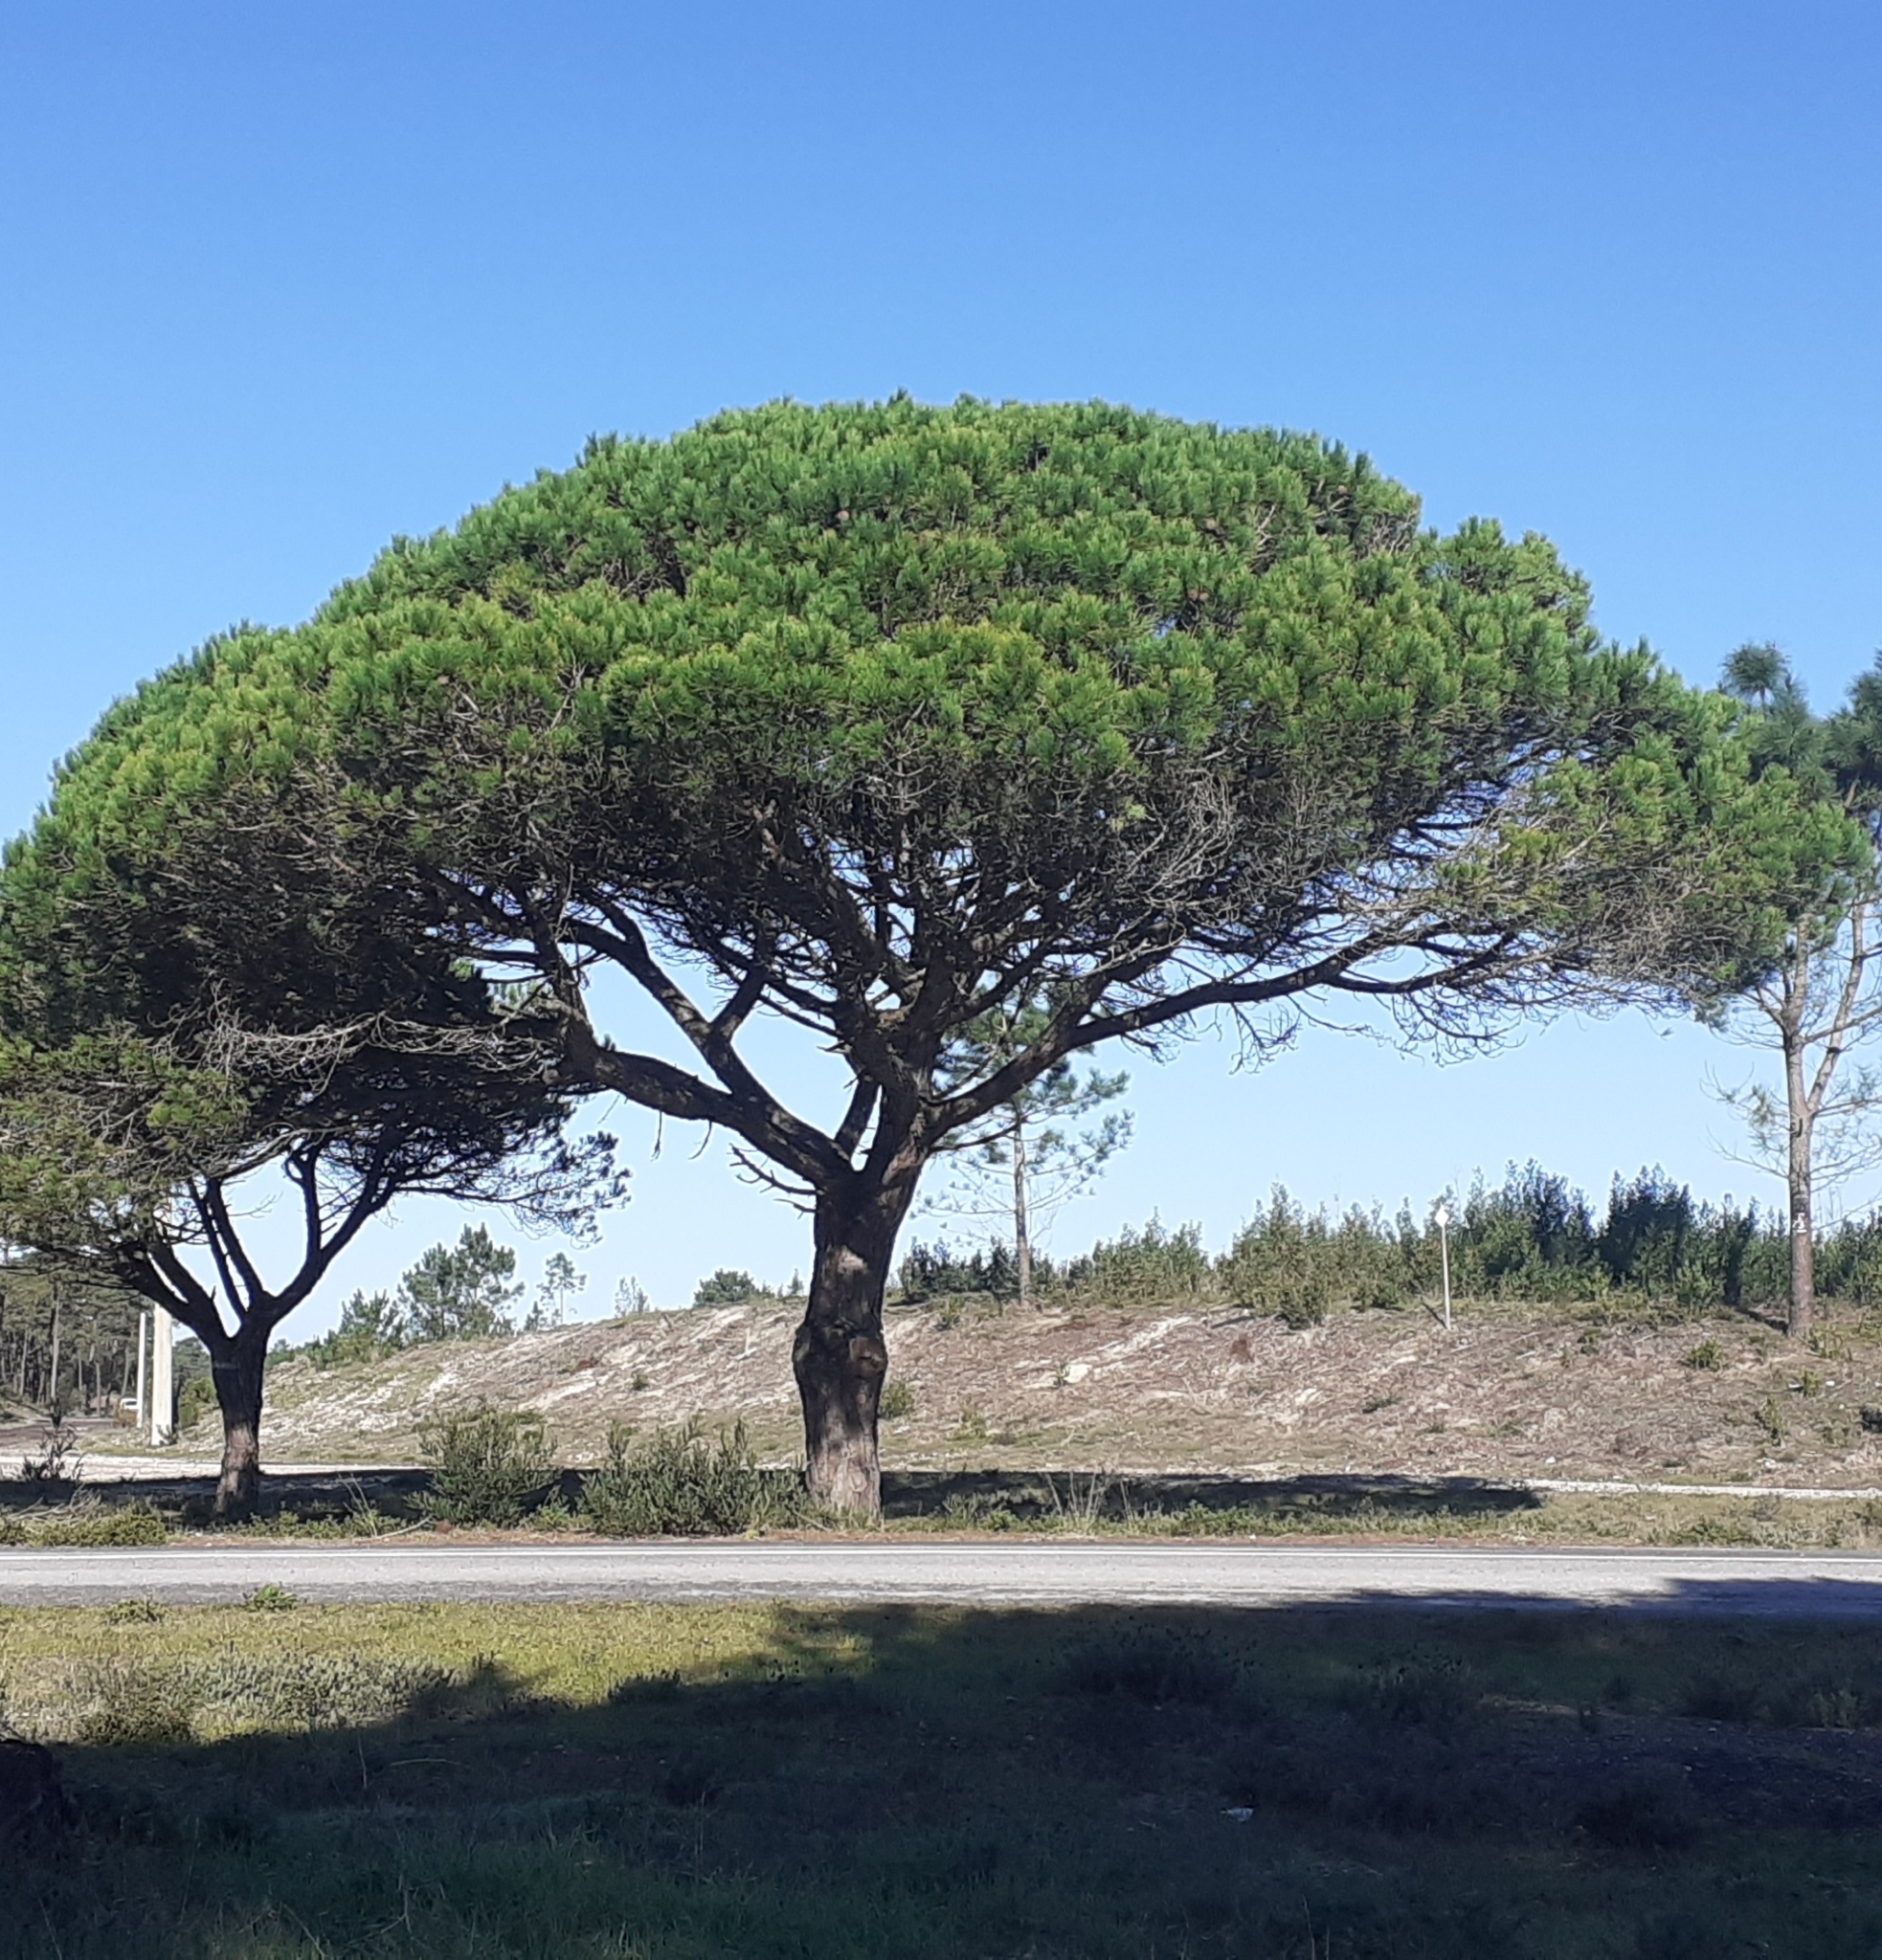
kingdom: Plantae
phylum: Tracheophyta
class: Pinopsida
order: Pinales
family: Pinaceae
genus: Pinus
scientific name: Pinus pinea
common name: Italian stone pine
